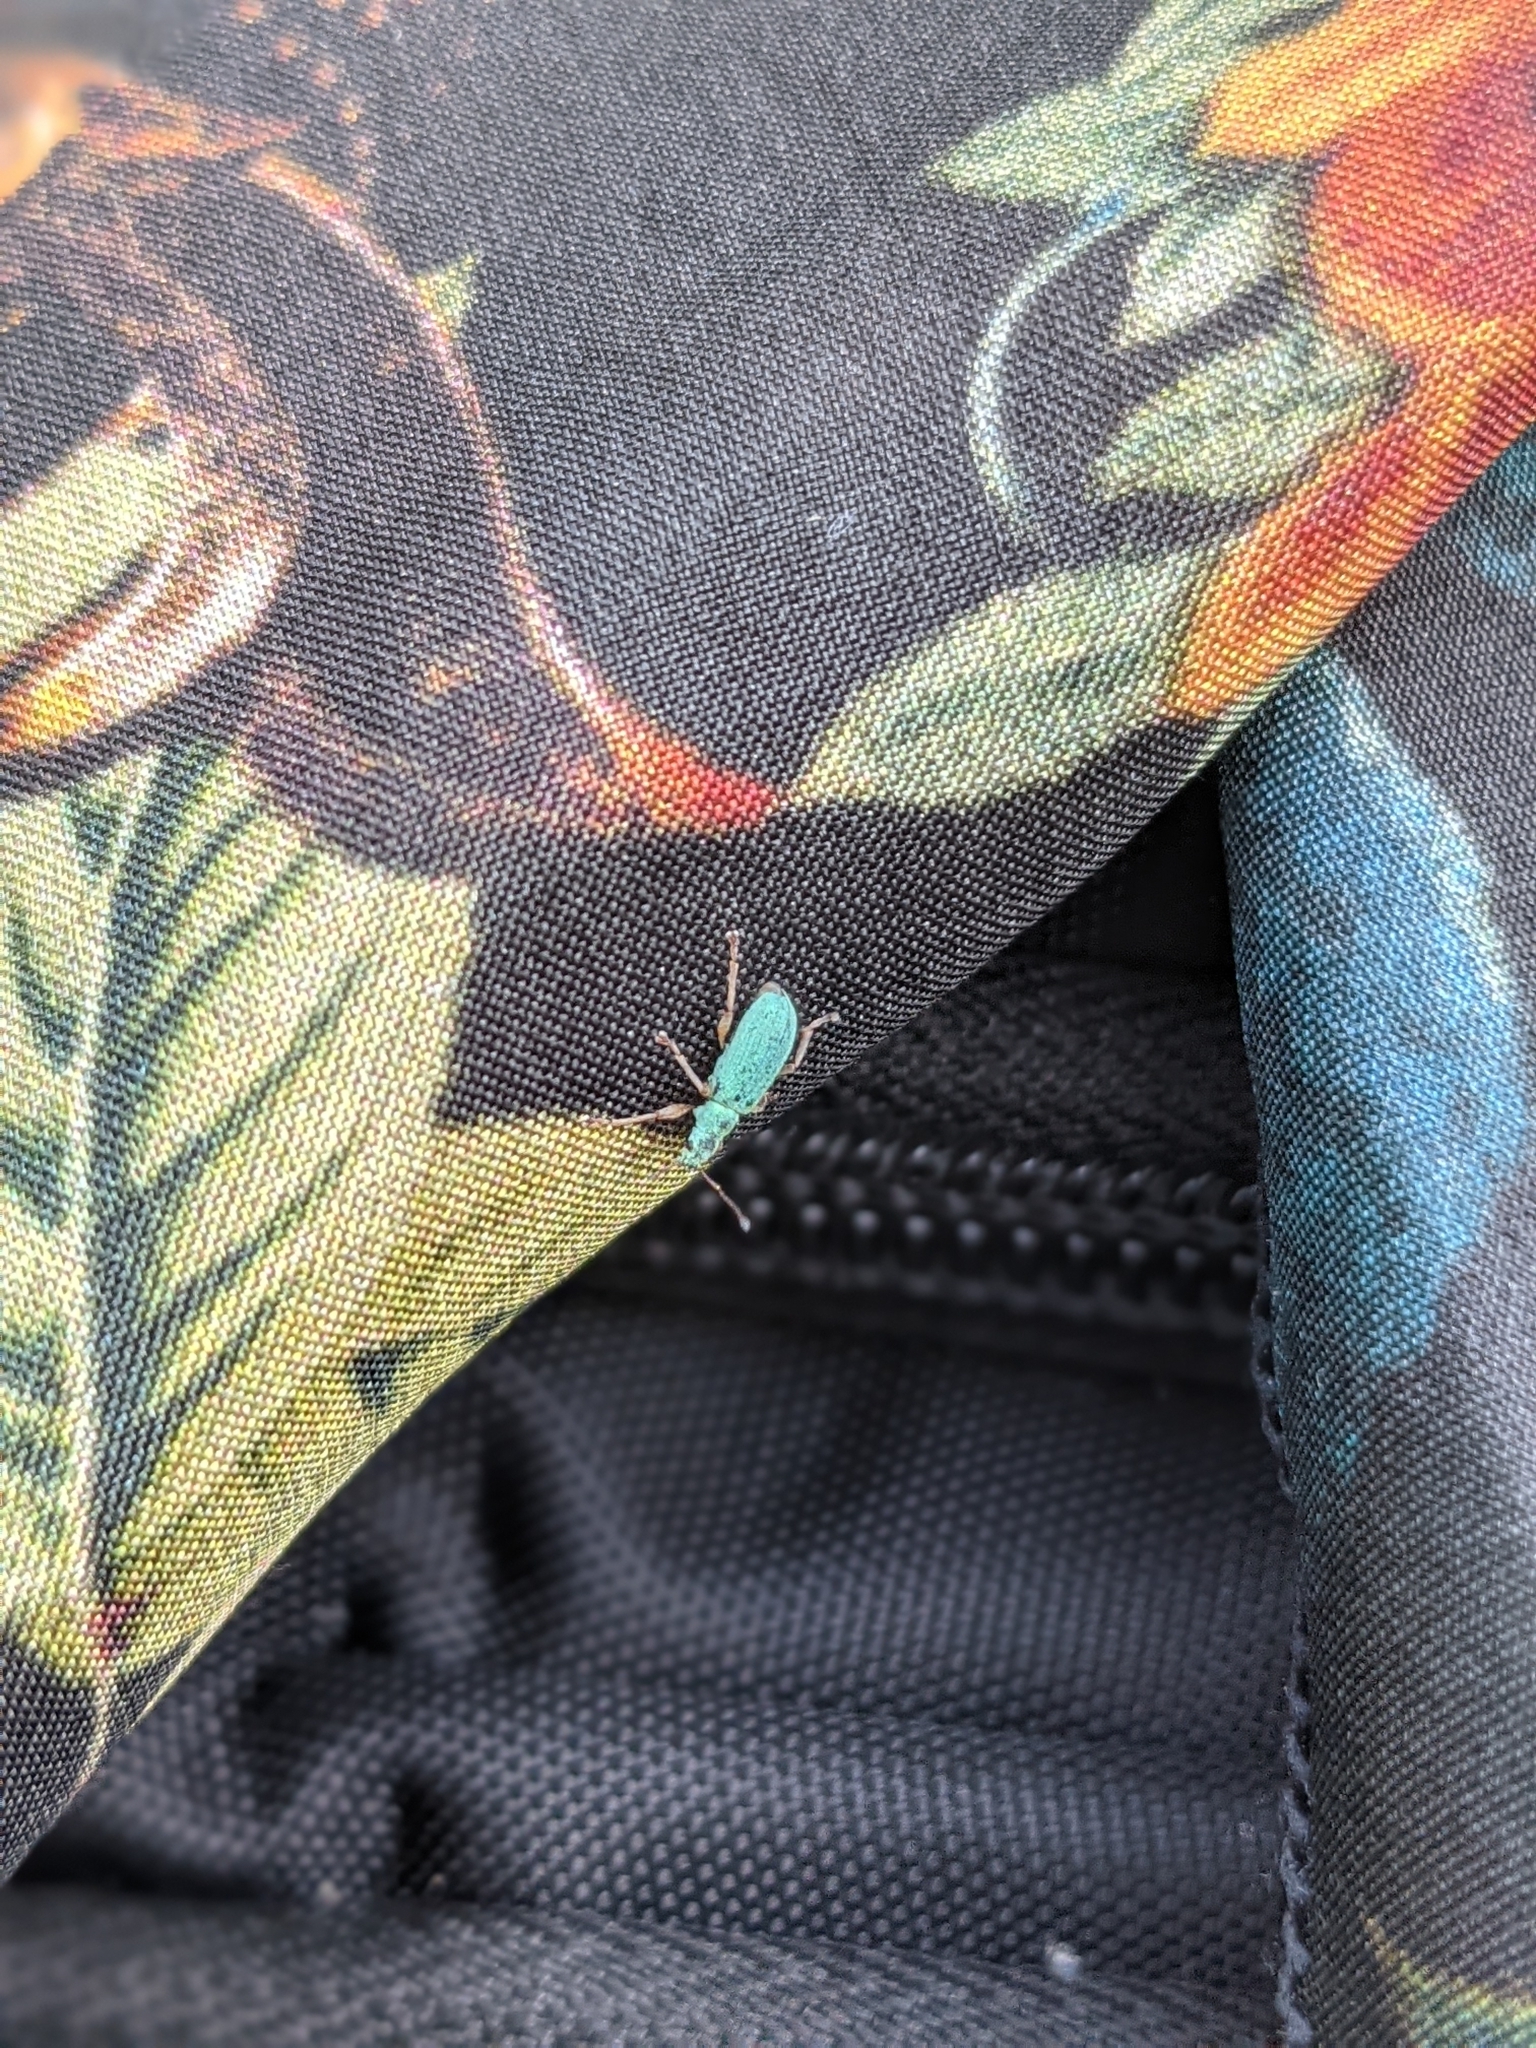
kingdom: Animalia
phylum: Arthropoda
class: Insecta
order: Coleoptera
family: Curculionidae
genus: Polydrusus
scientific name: Polydrusus impressifrons
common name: Weevil
